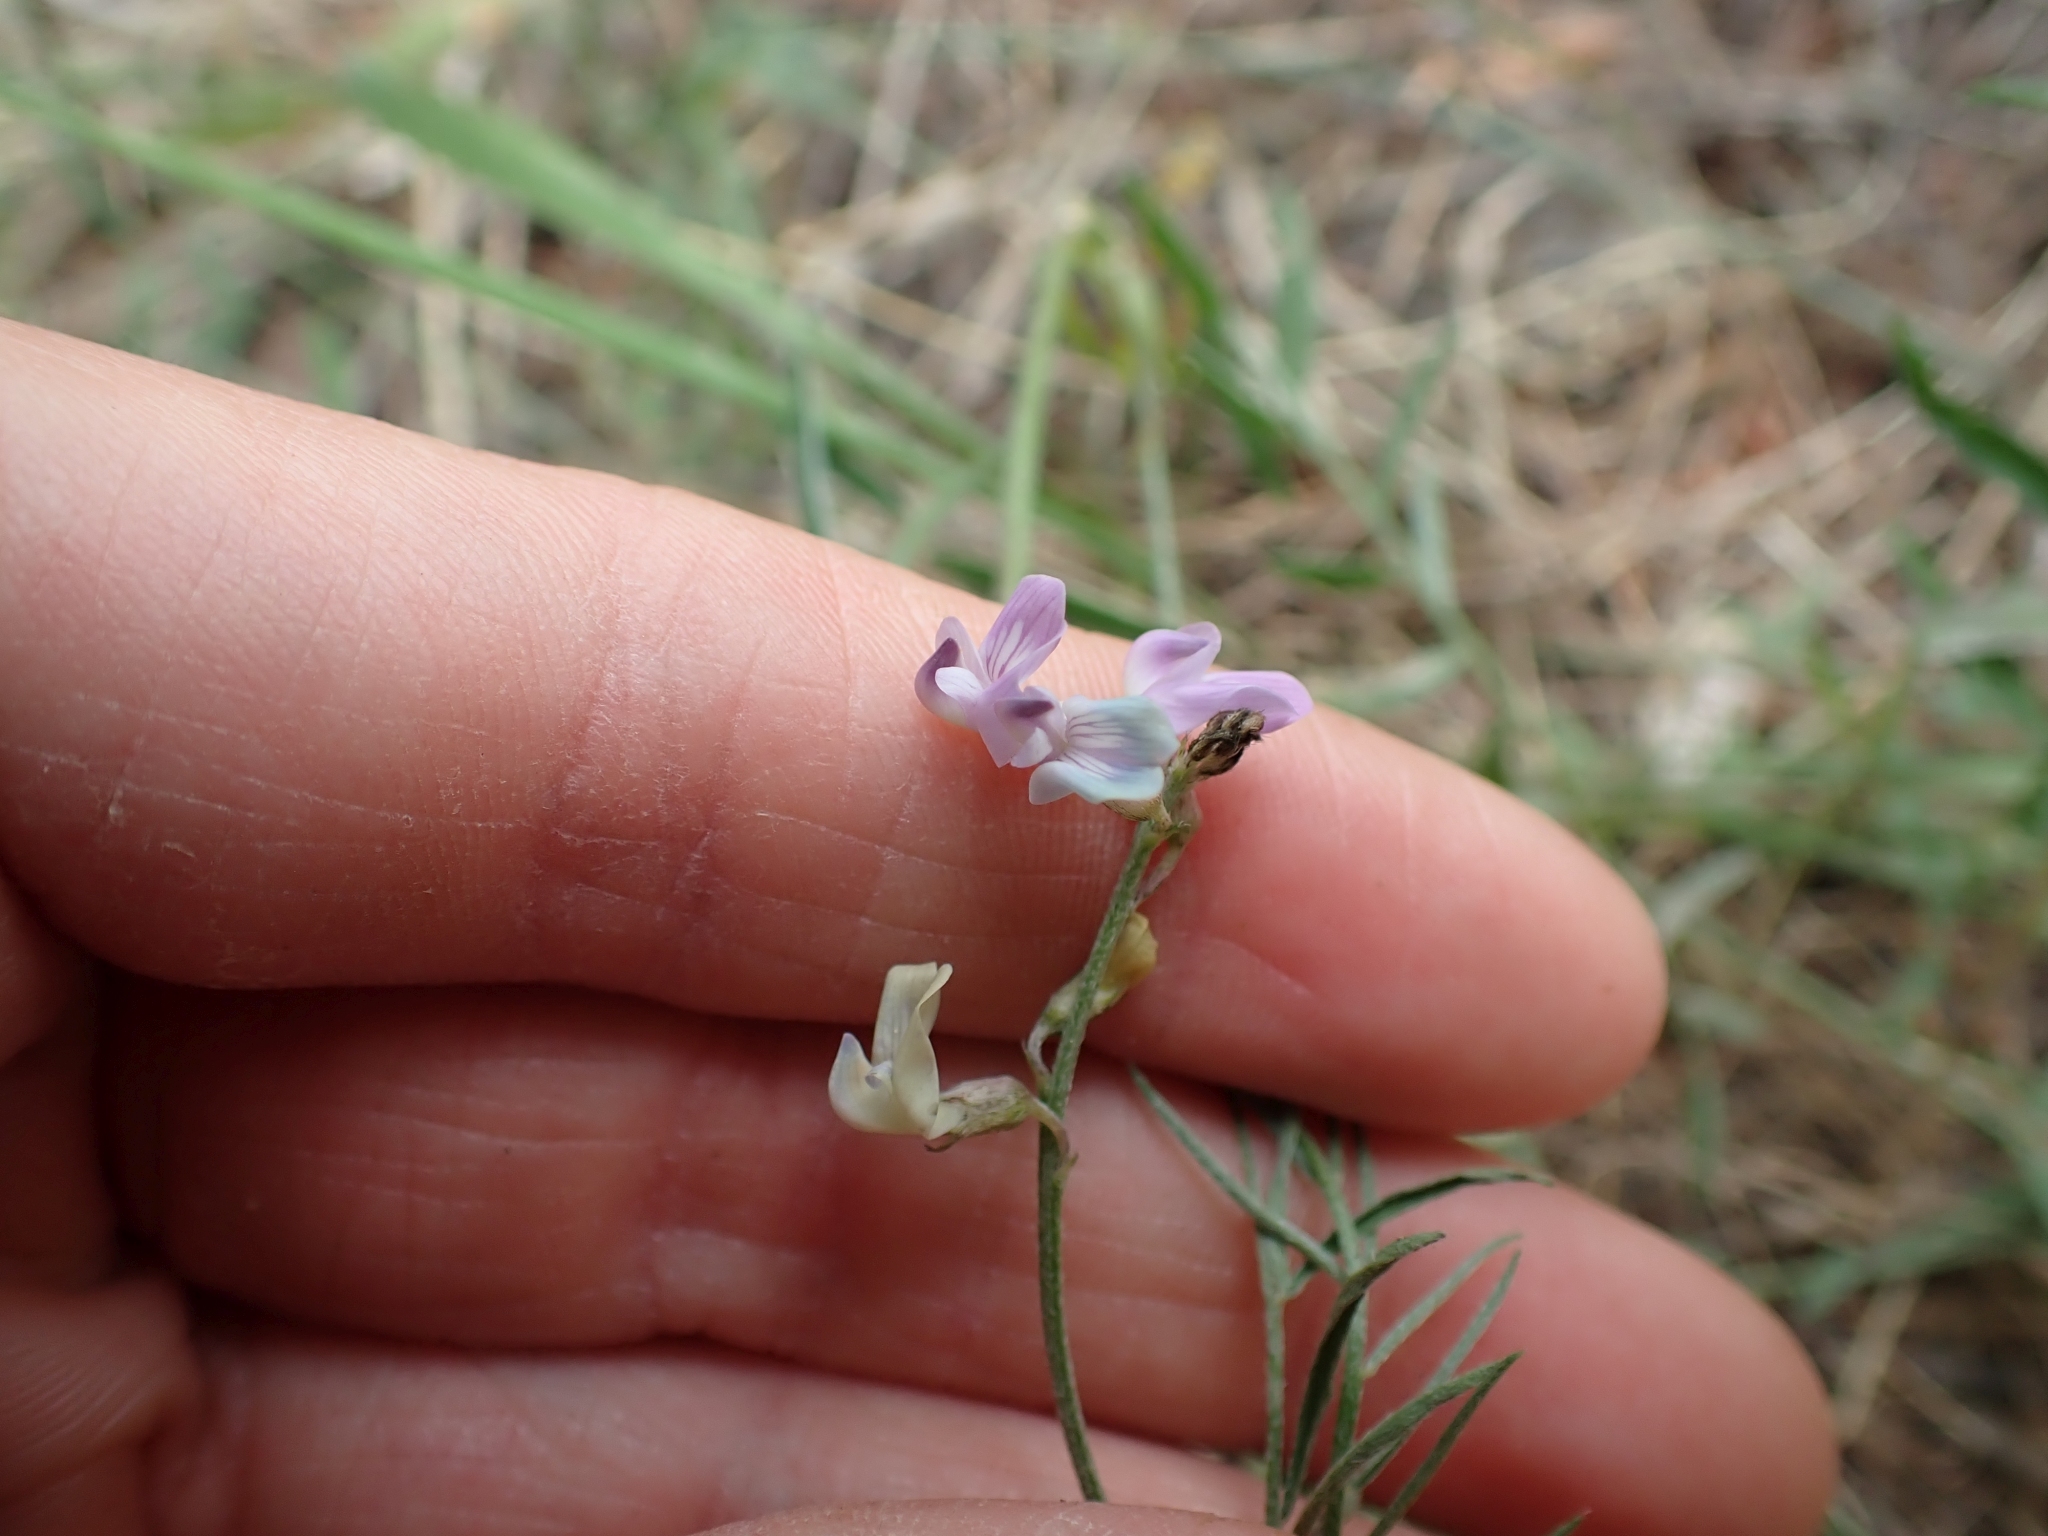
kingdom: Plantae
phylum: Tracheophyta
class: Magnoliopsida
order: Fabales
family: Fabaceae
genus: Astragalus
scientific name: Astragalus miser
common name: Timber milkvetch
